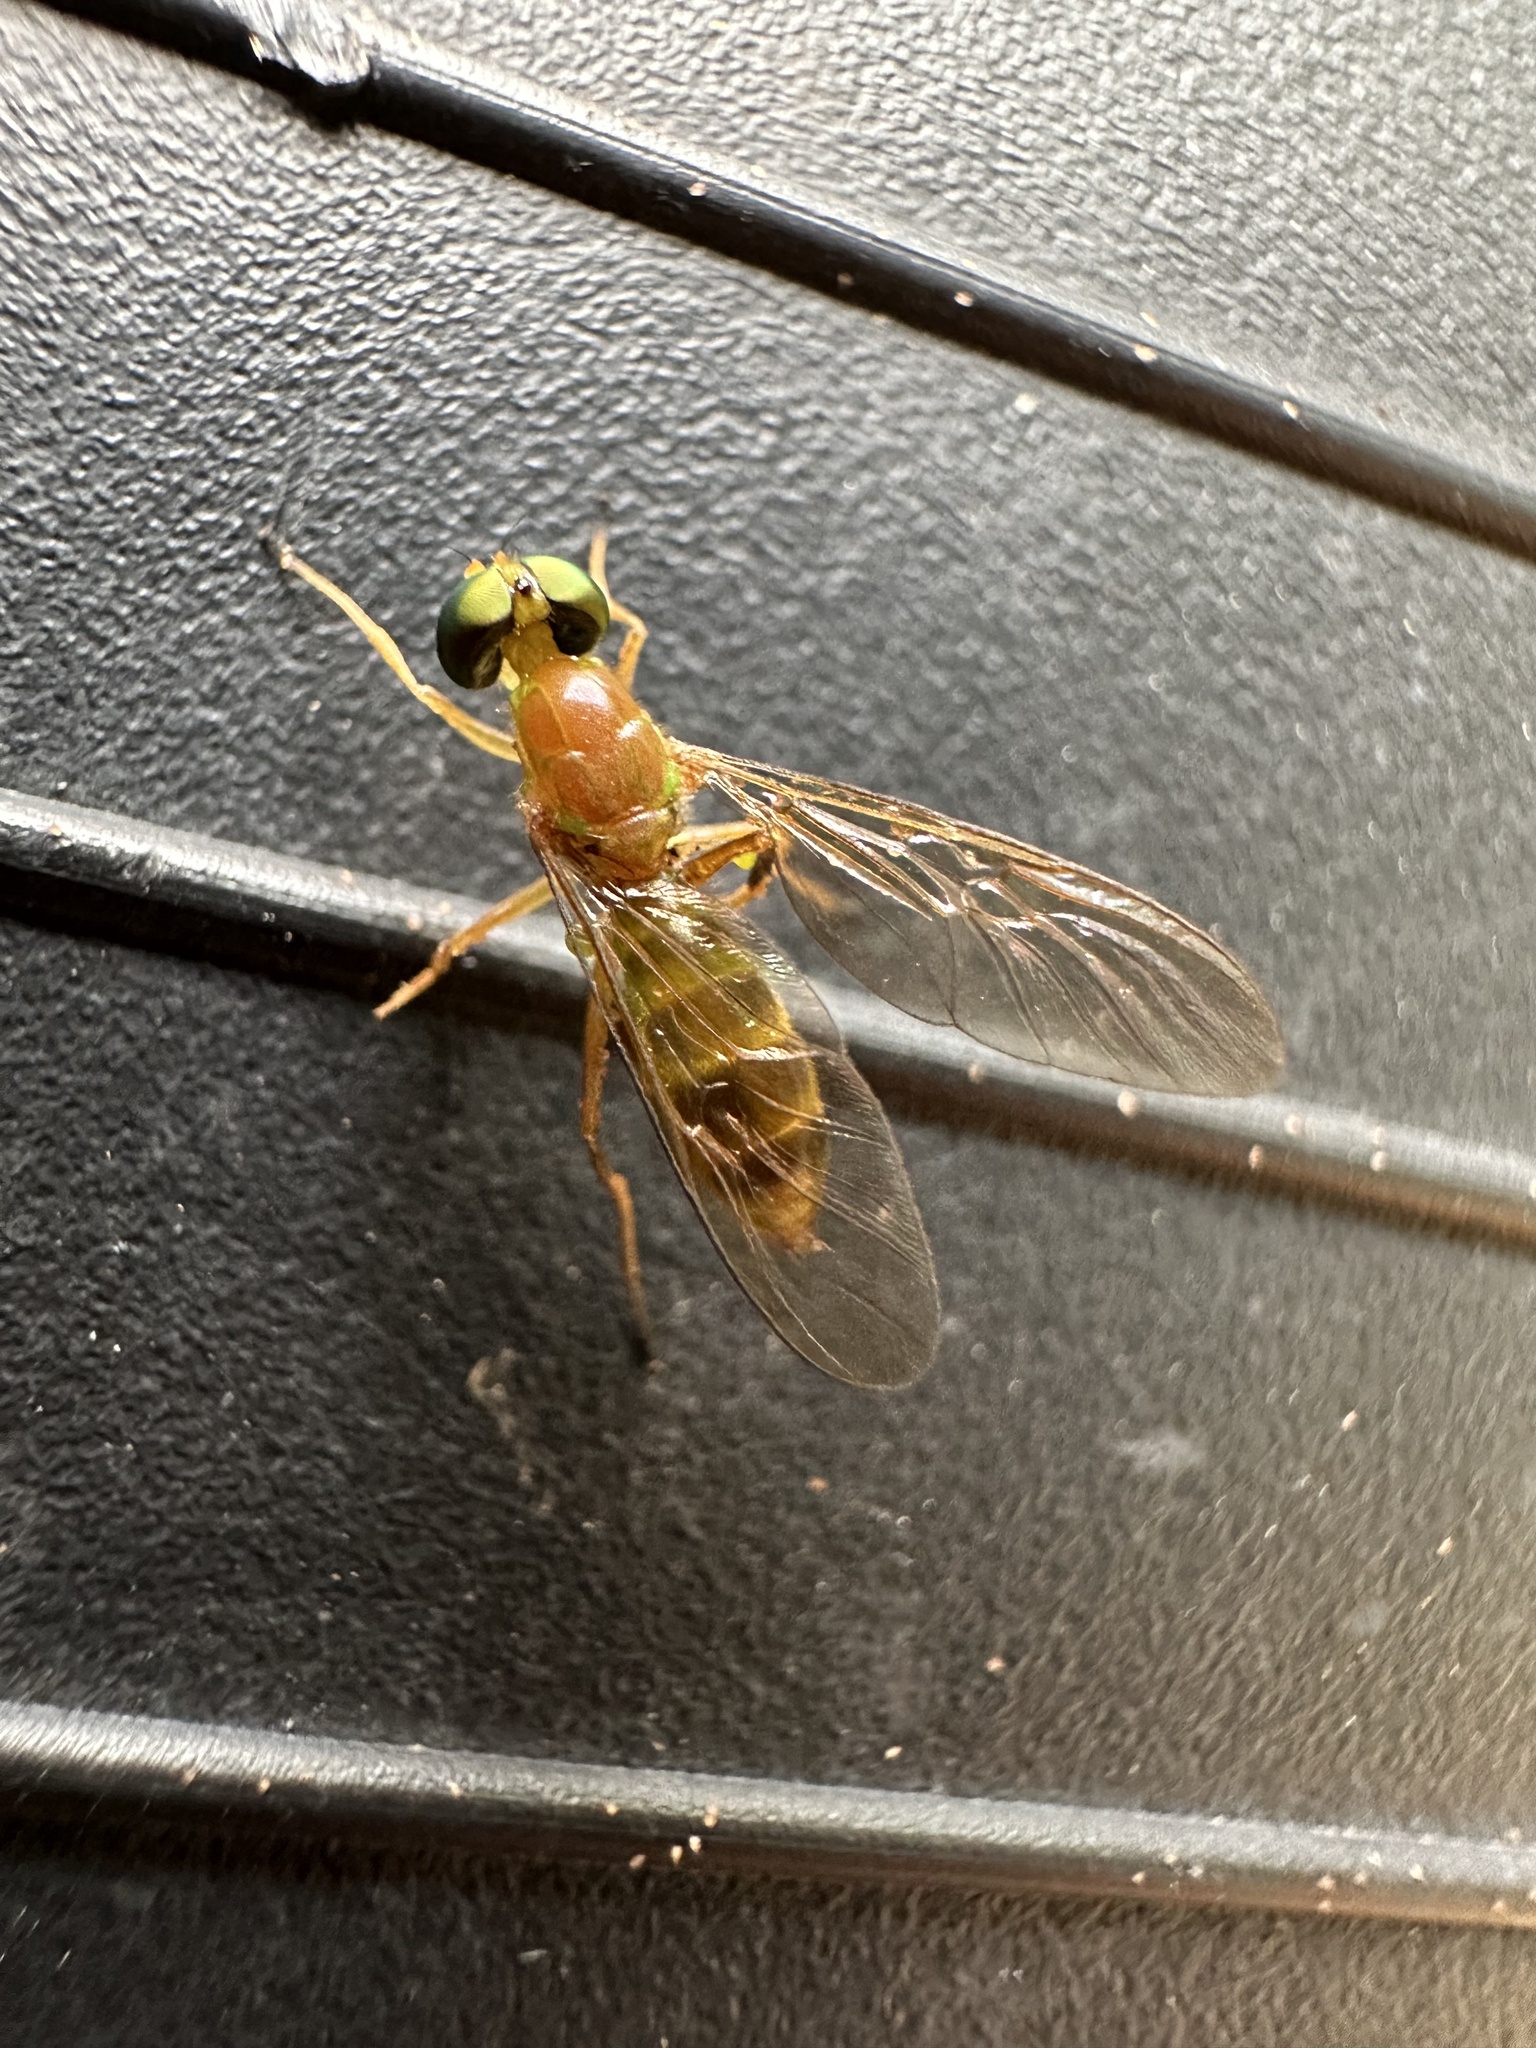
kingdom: Animalia
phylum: Arthropoda
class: Insecta
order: Diptera
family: Stratiomyidae
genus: Ptecticus
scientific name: Ptecticus trivittatus
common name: Compost fly
